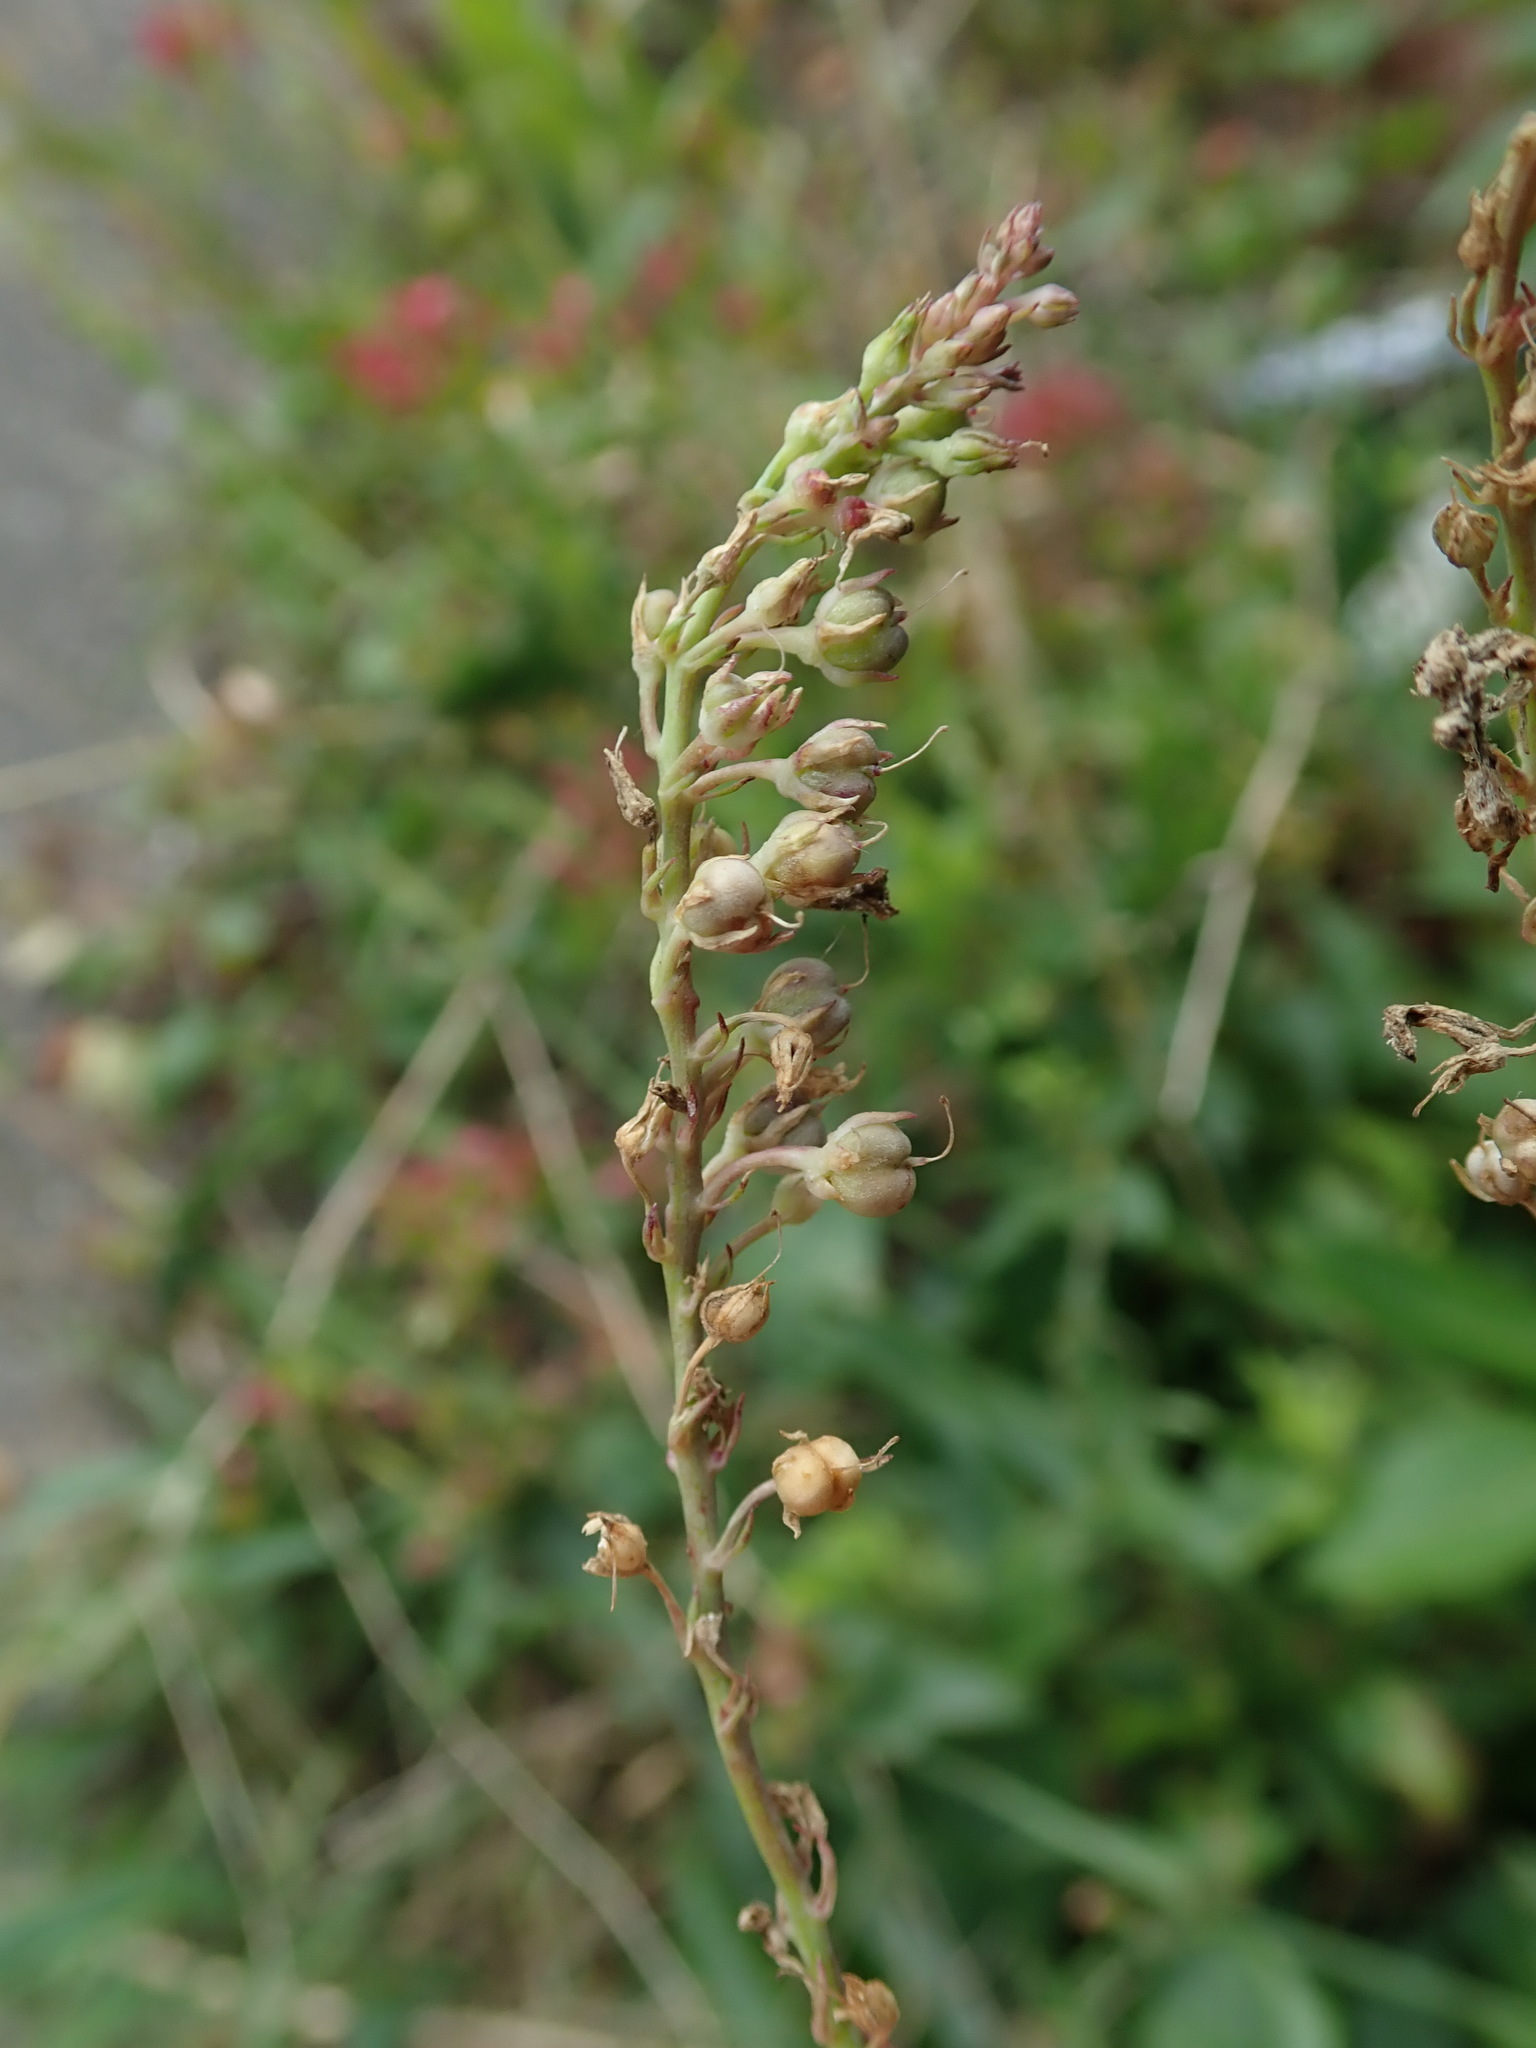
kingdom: Plantae
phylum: Tracheophyta
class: Magnoliopsida
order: Lamiales
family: Plantaginaceae
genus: Linaria
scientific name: Linaria purpurea
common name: Purple toadflax
